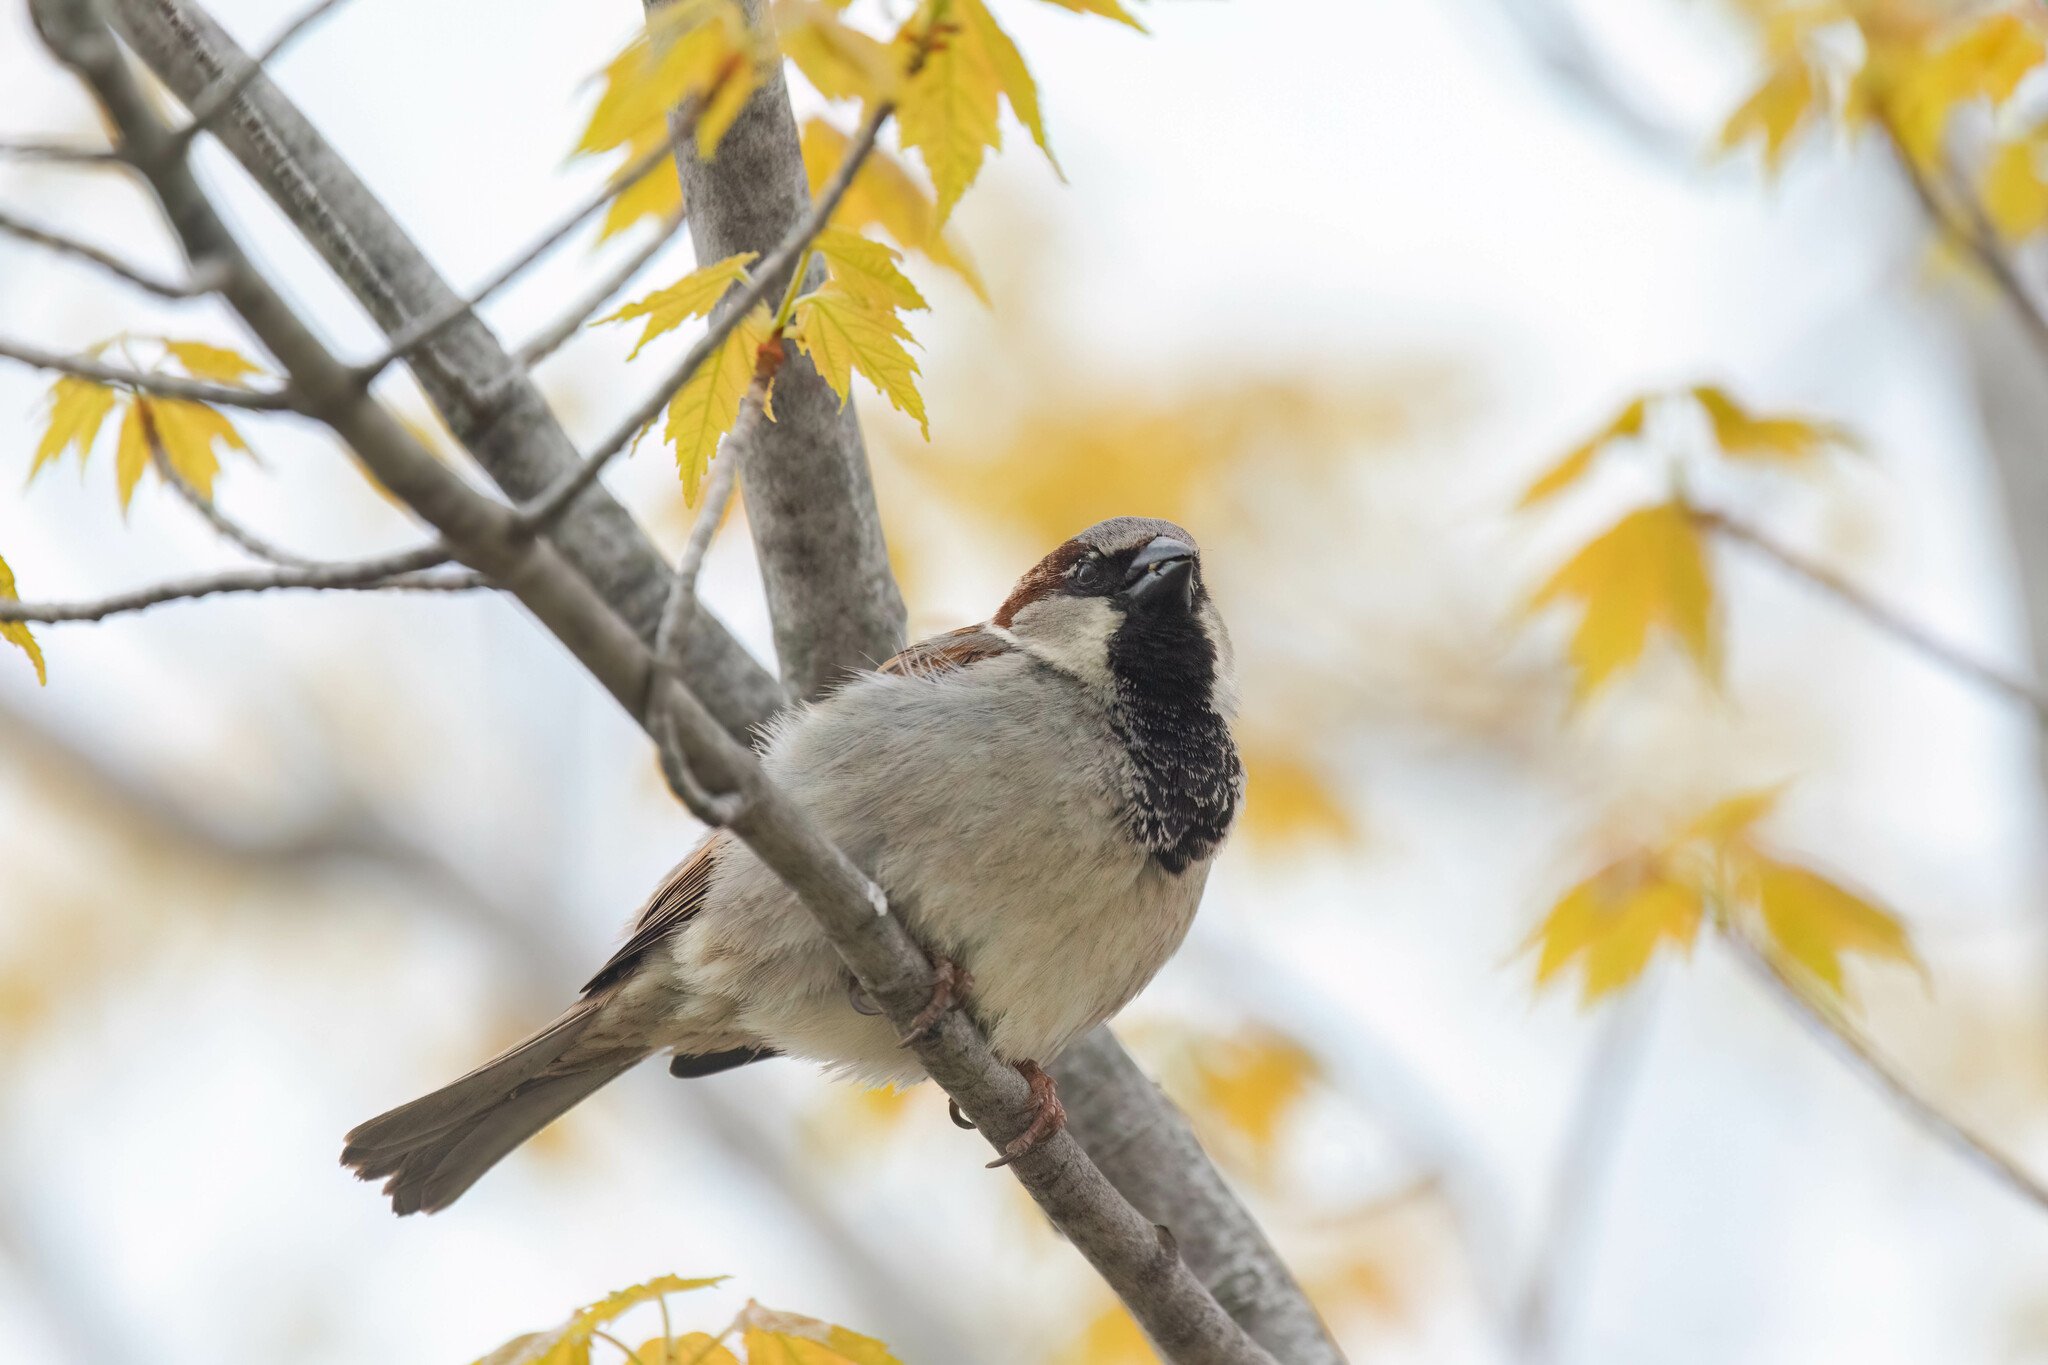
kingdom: Animalia
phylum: Chordata
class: Aves
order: Passeriformes
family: Passeridae
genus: Passer
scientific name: Passer domesticus
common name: House sparrow
